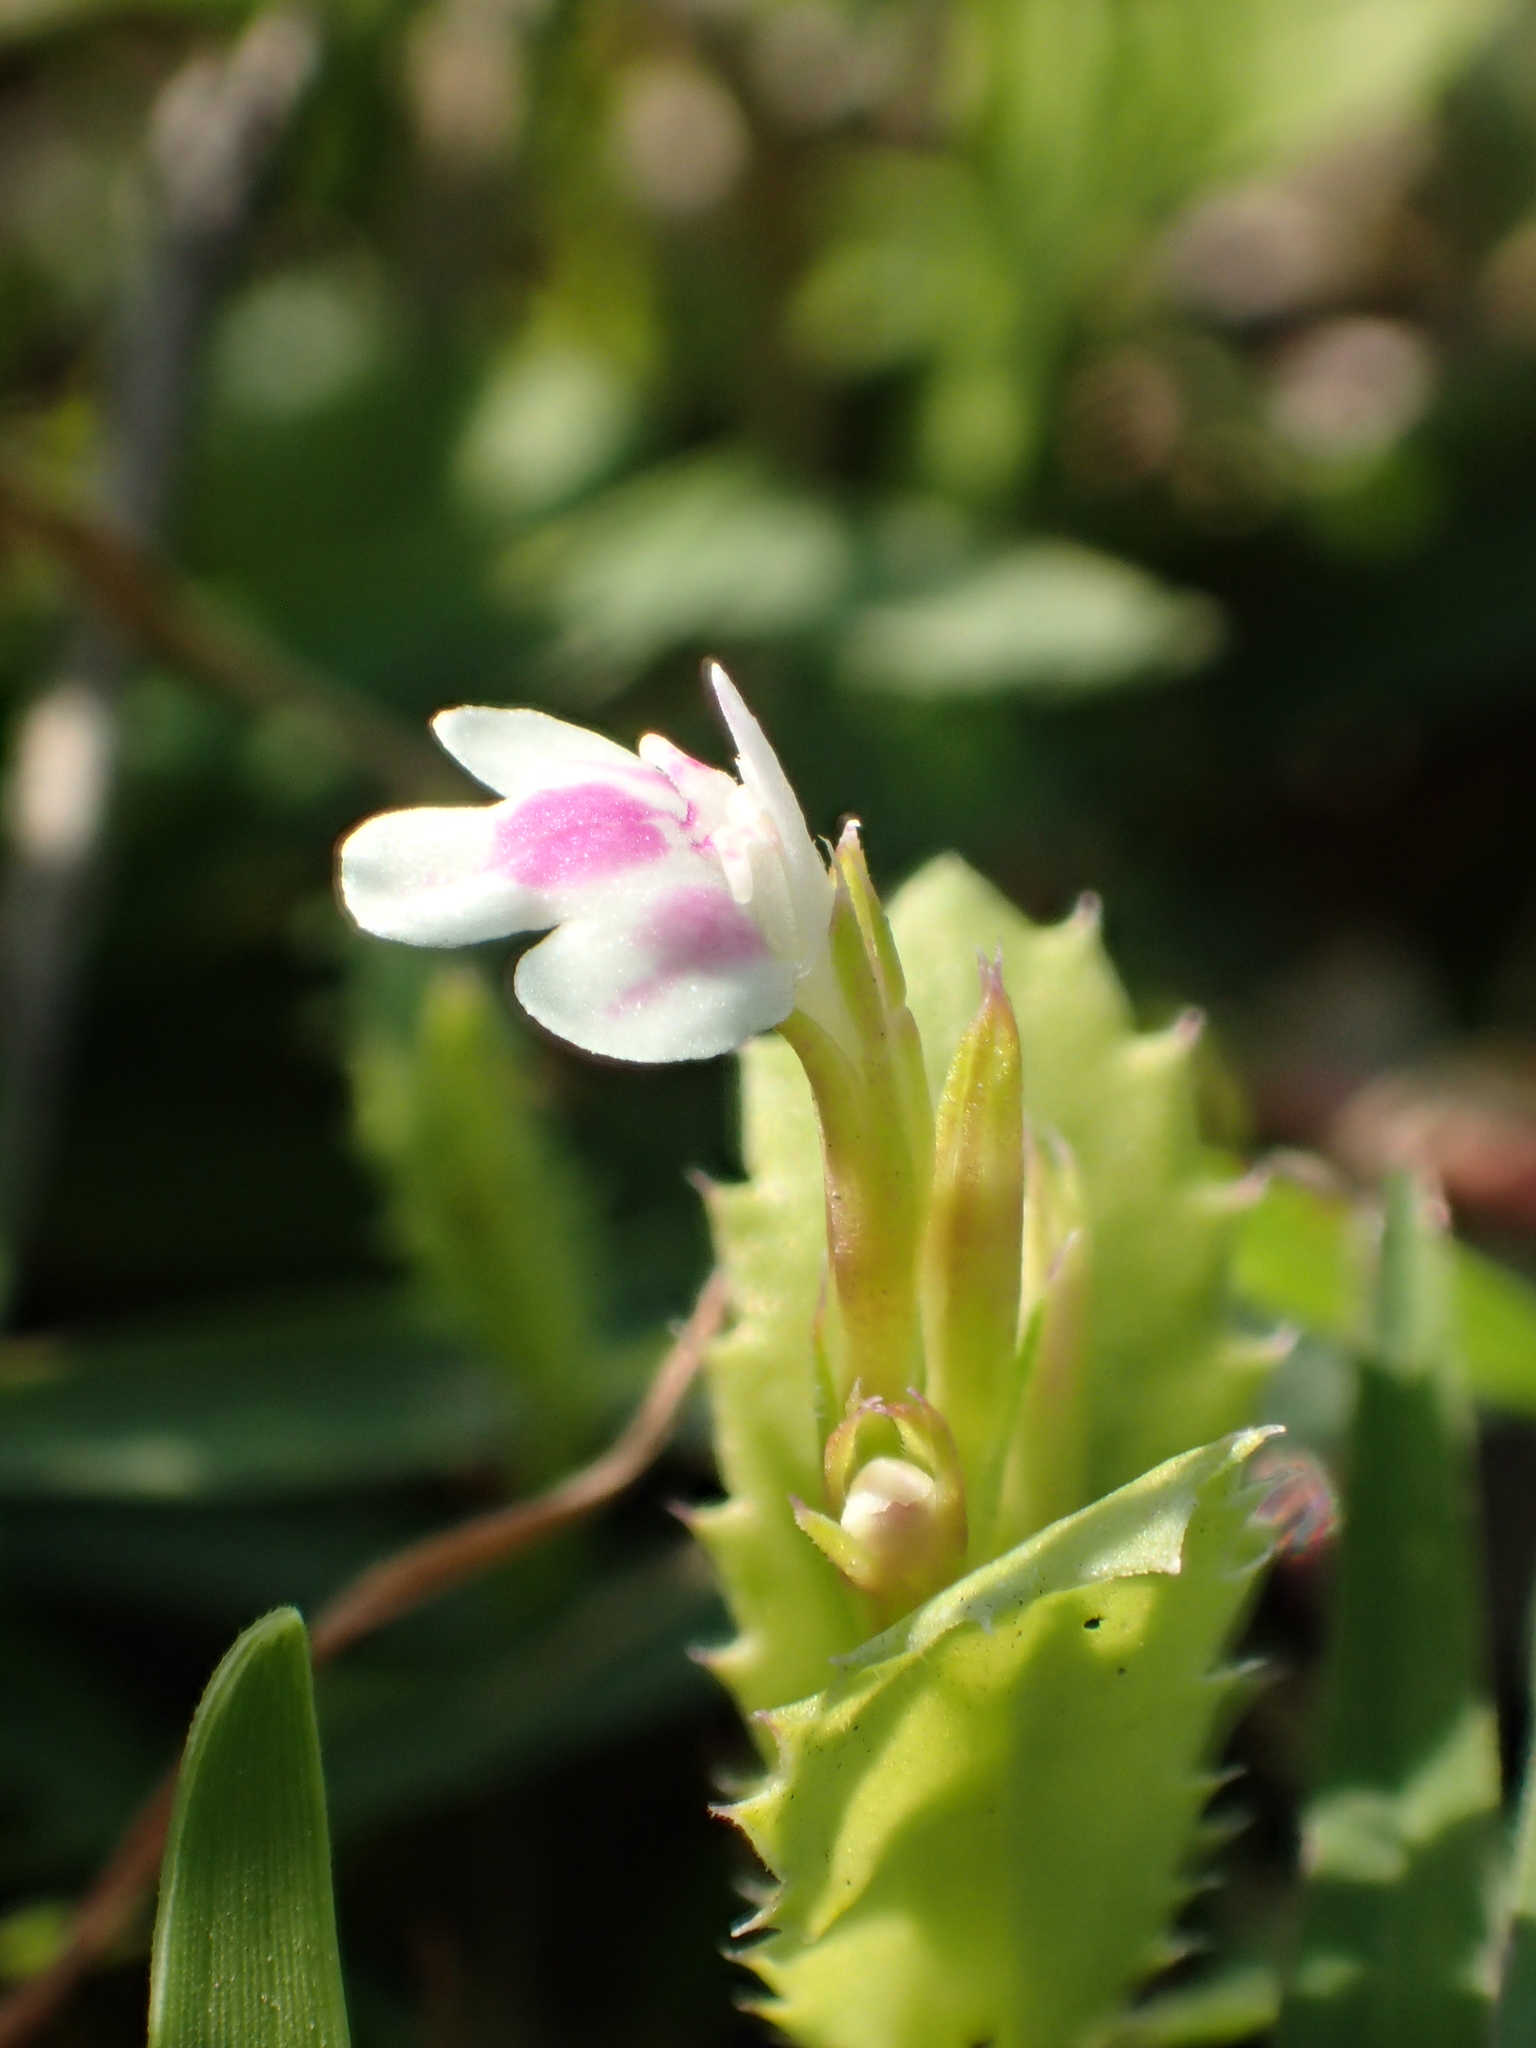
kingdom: Plantae
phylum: Tracheophyta
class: Magnoliopsida
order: Lamiales
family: Linderniaceae
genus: Bonnaya
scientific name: Bonnaya ciliata
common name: Hairy slitwort
